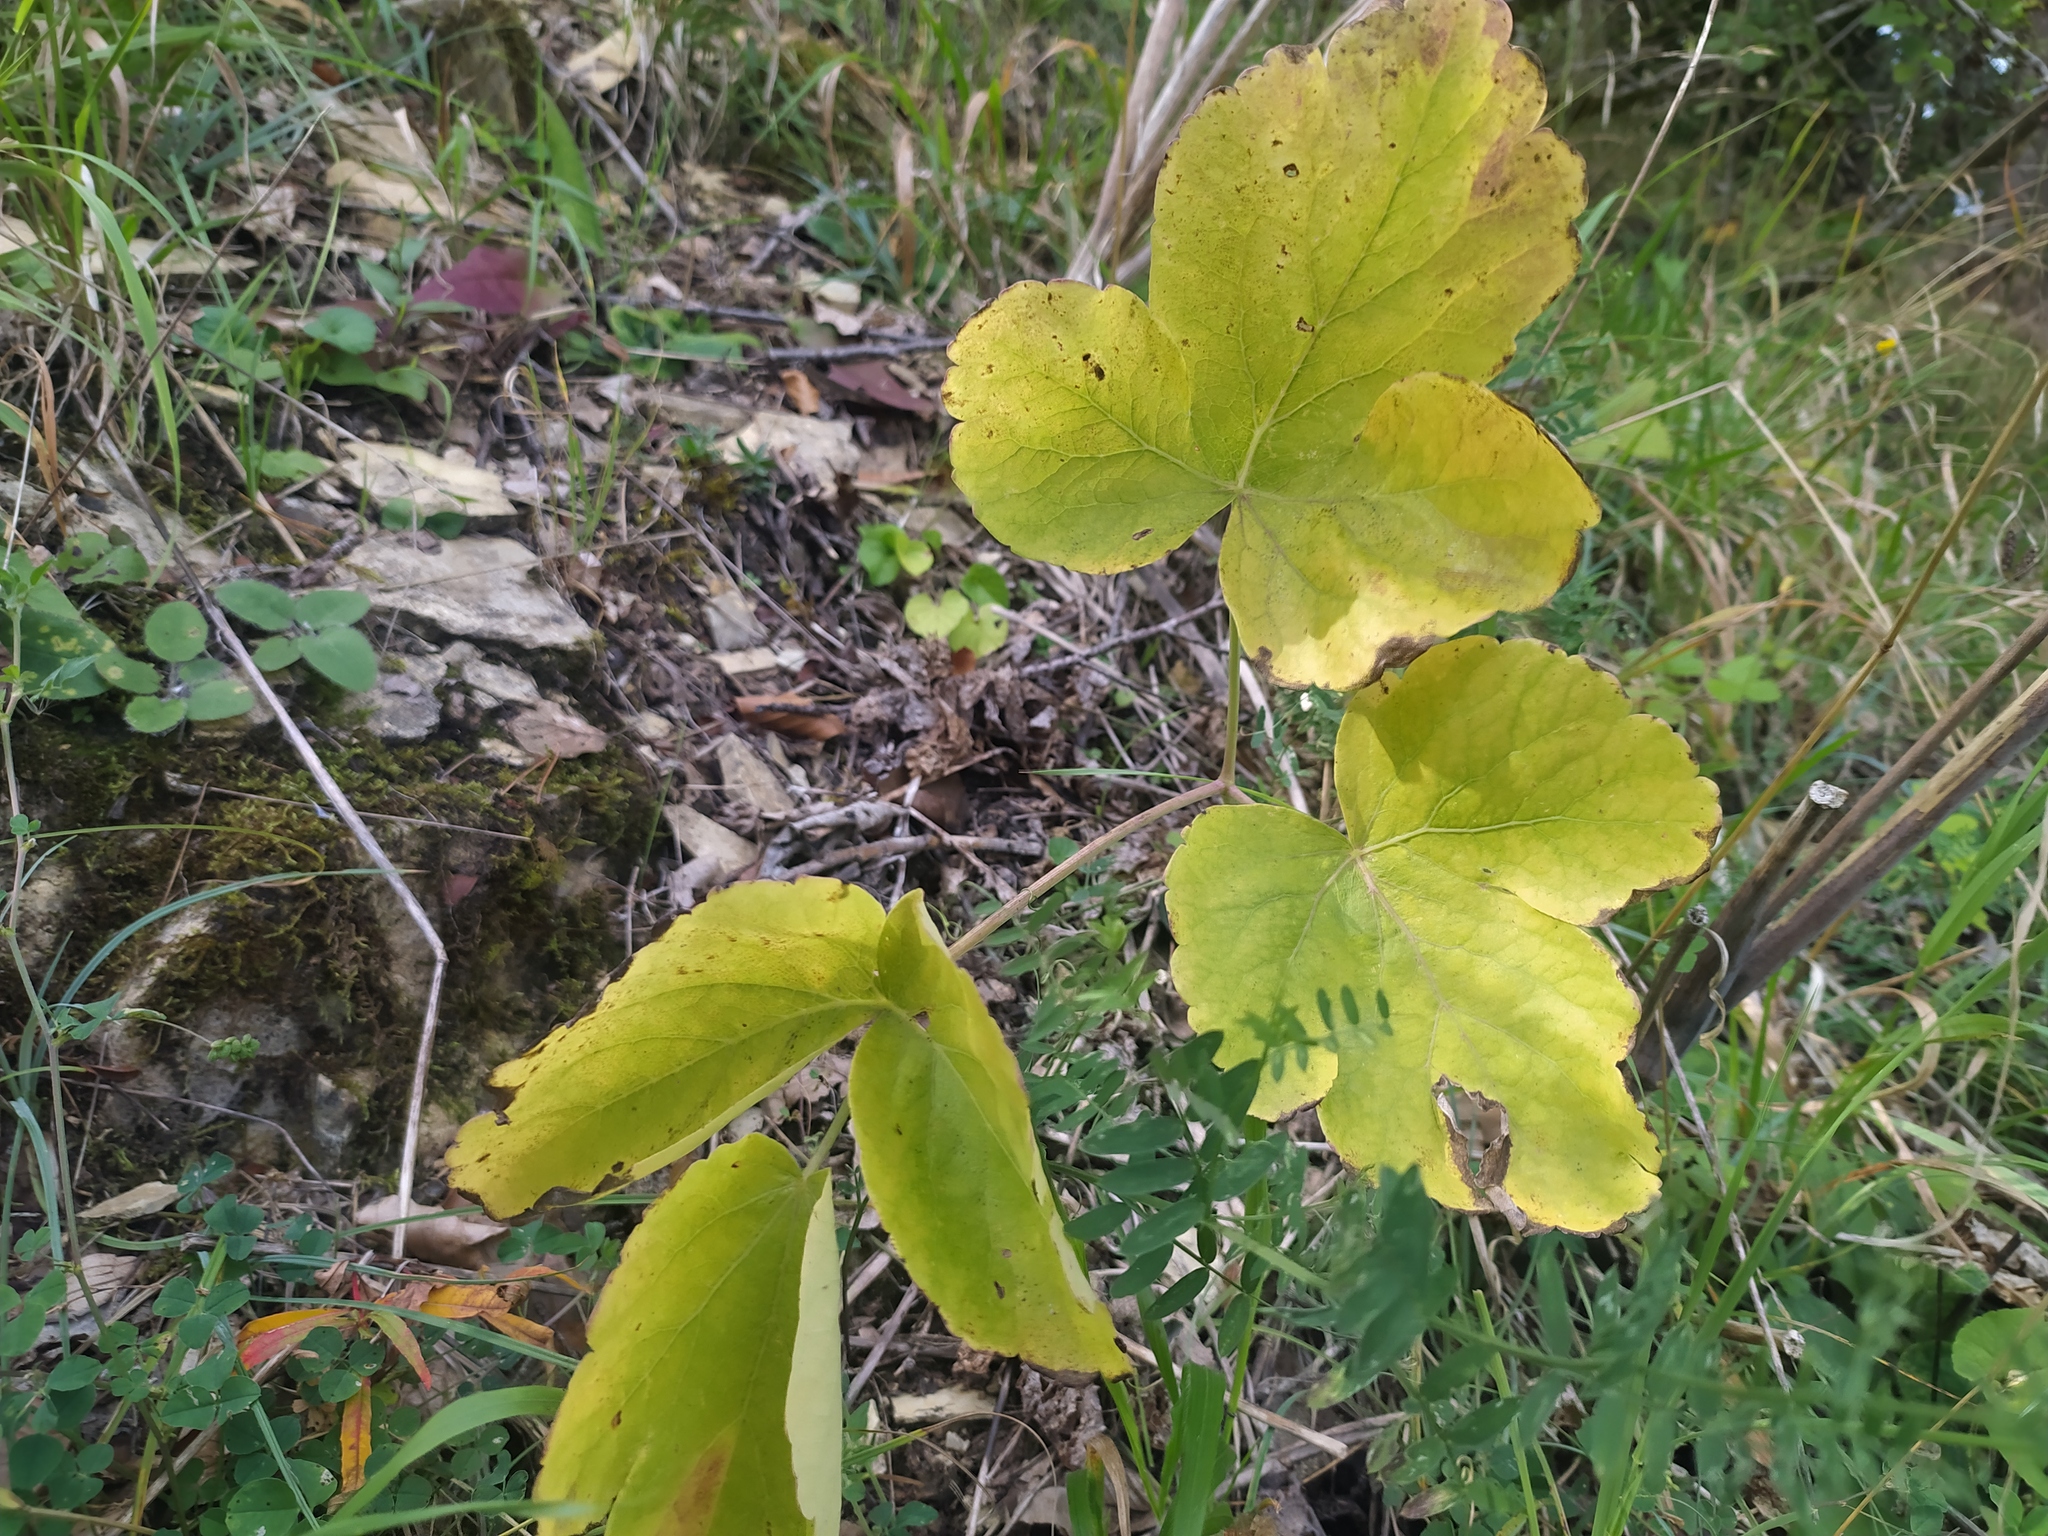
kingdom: Plantae
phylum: Tracheophyta
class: Magnoliopsida
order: Apiales
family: Apiaceae
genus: Laser
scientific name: Laser trilobum
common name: Laser
